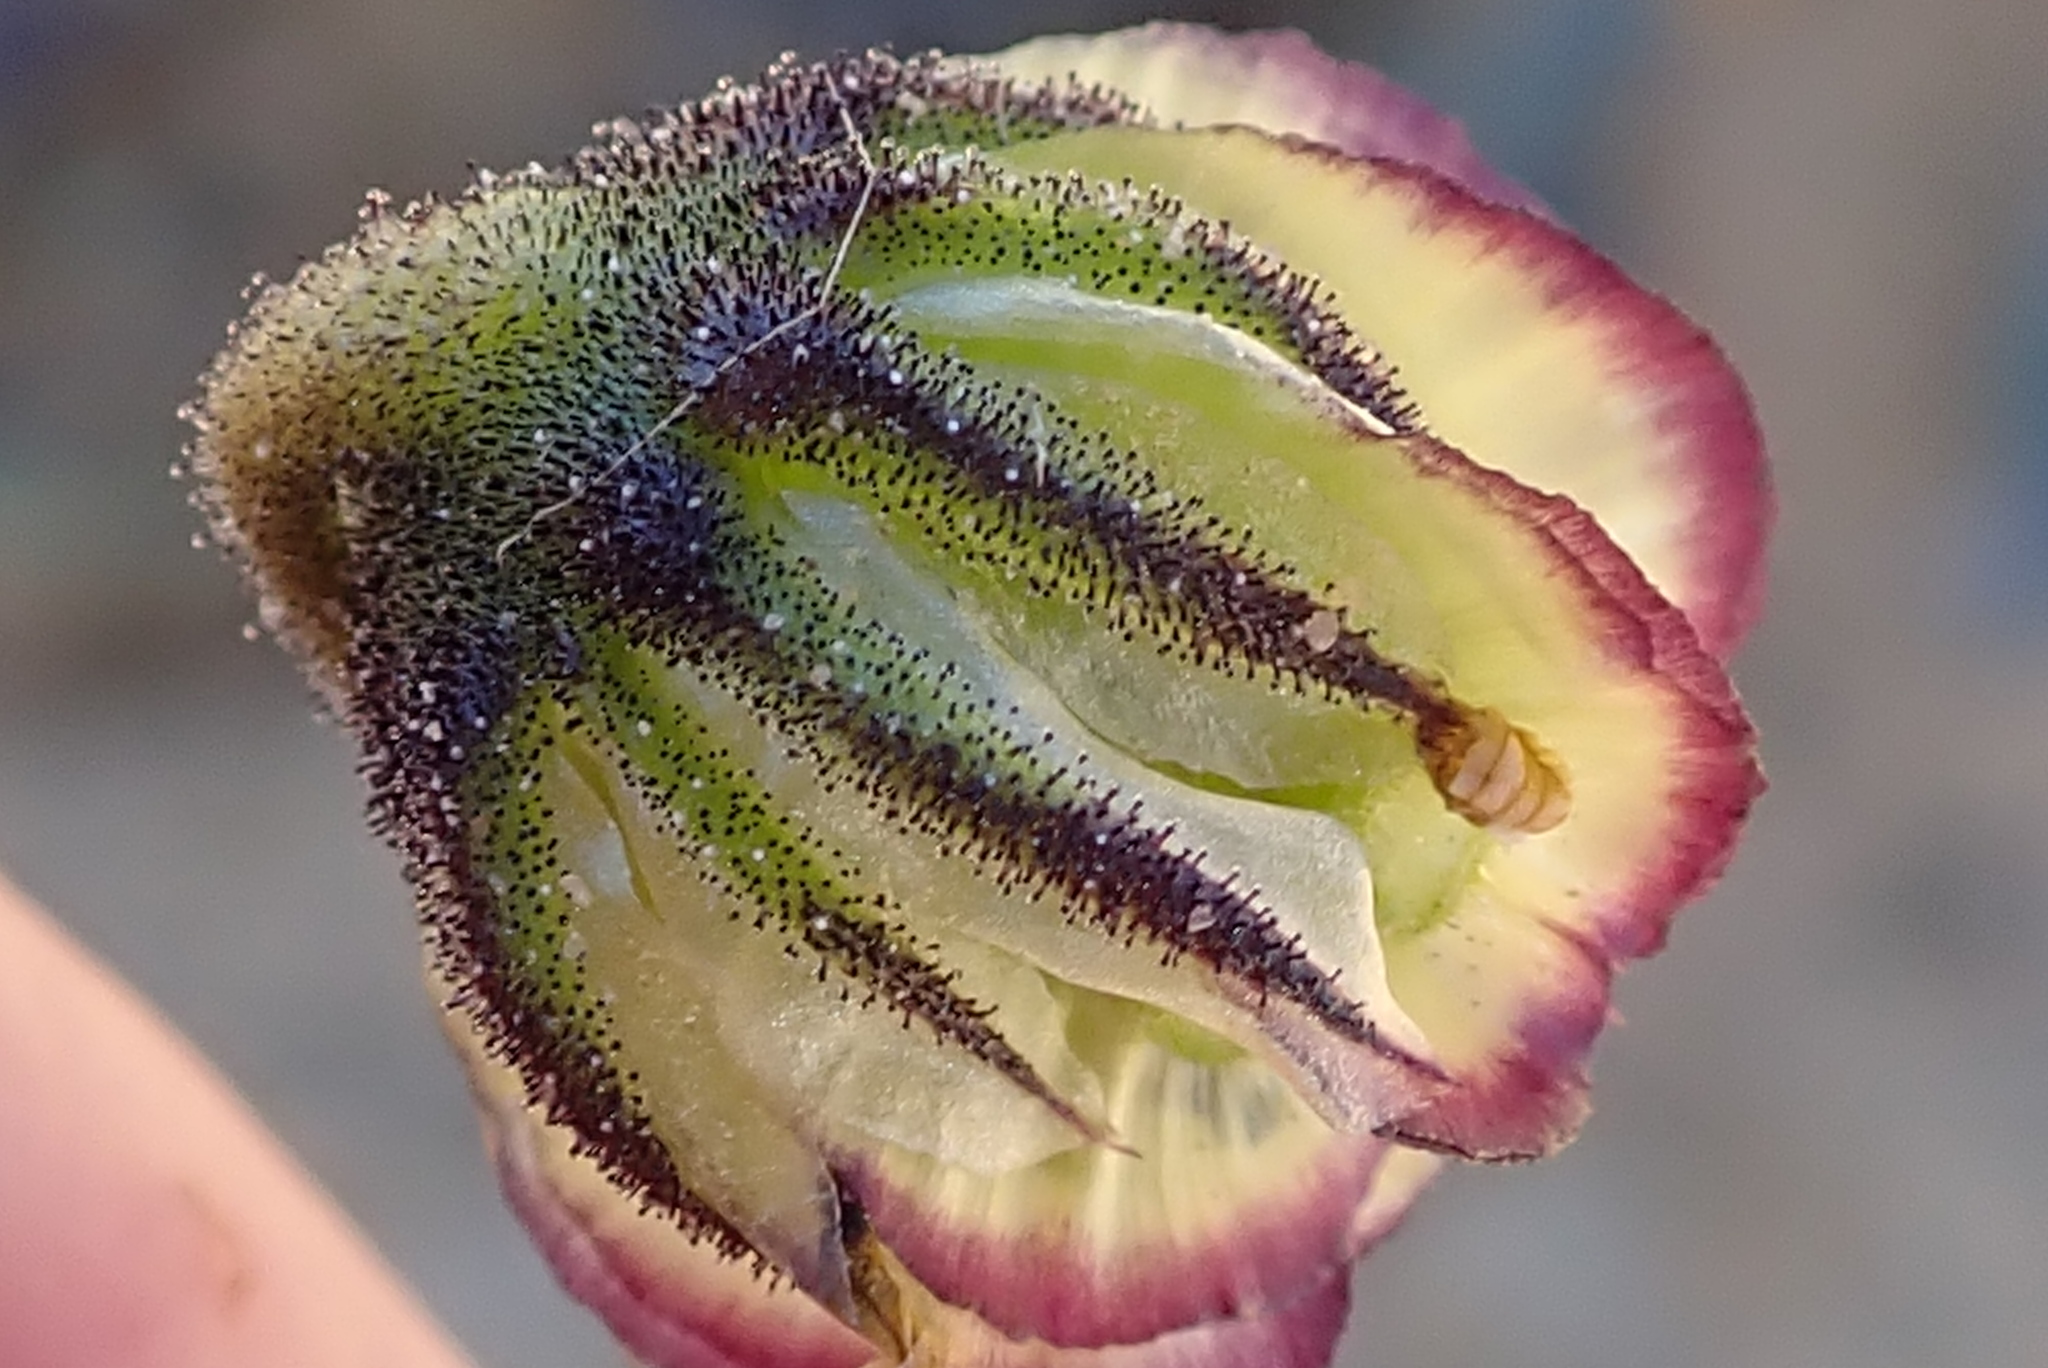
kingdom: Plantae
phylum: Tracheophyta
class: Magnoliopsida
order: Asterales
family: Asteraceae
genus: Osteospermum
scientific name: Osteospermum monstrosum
